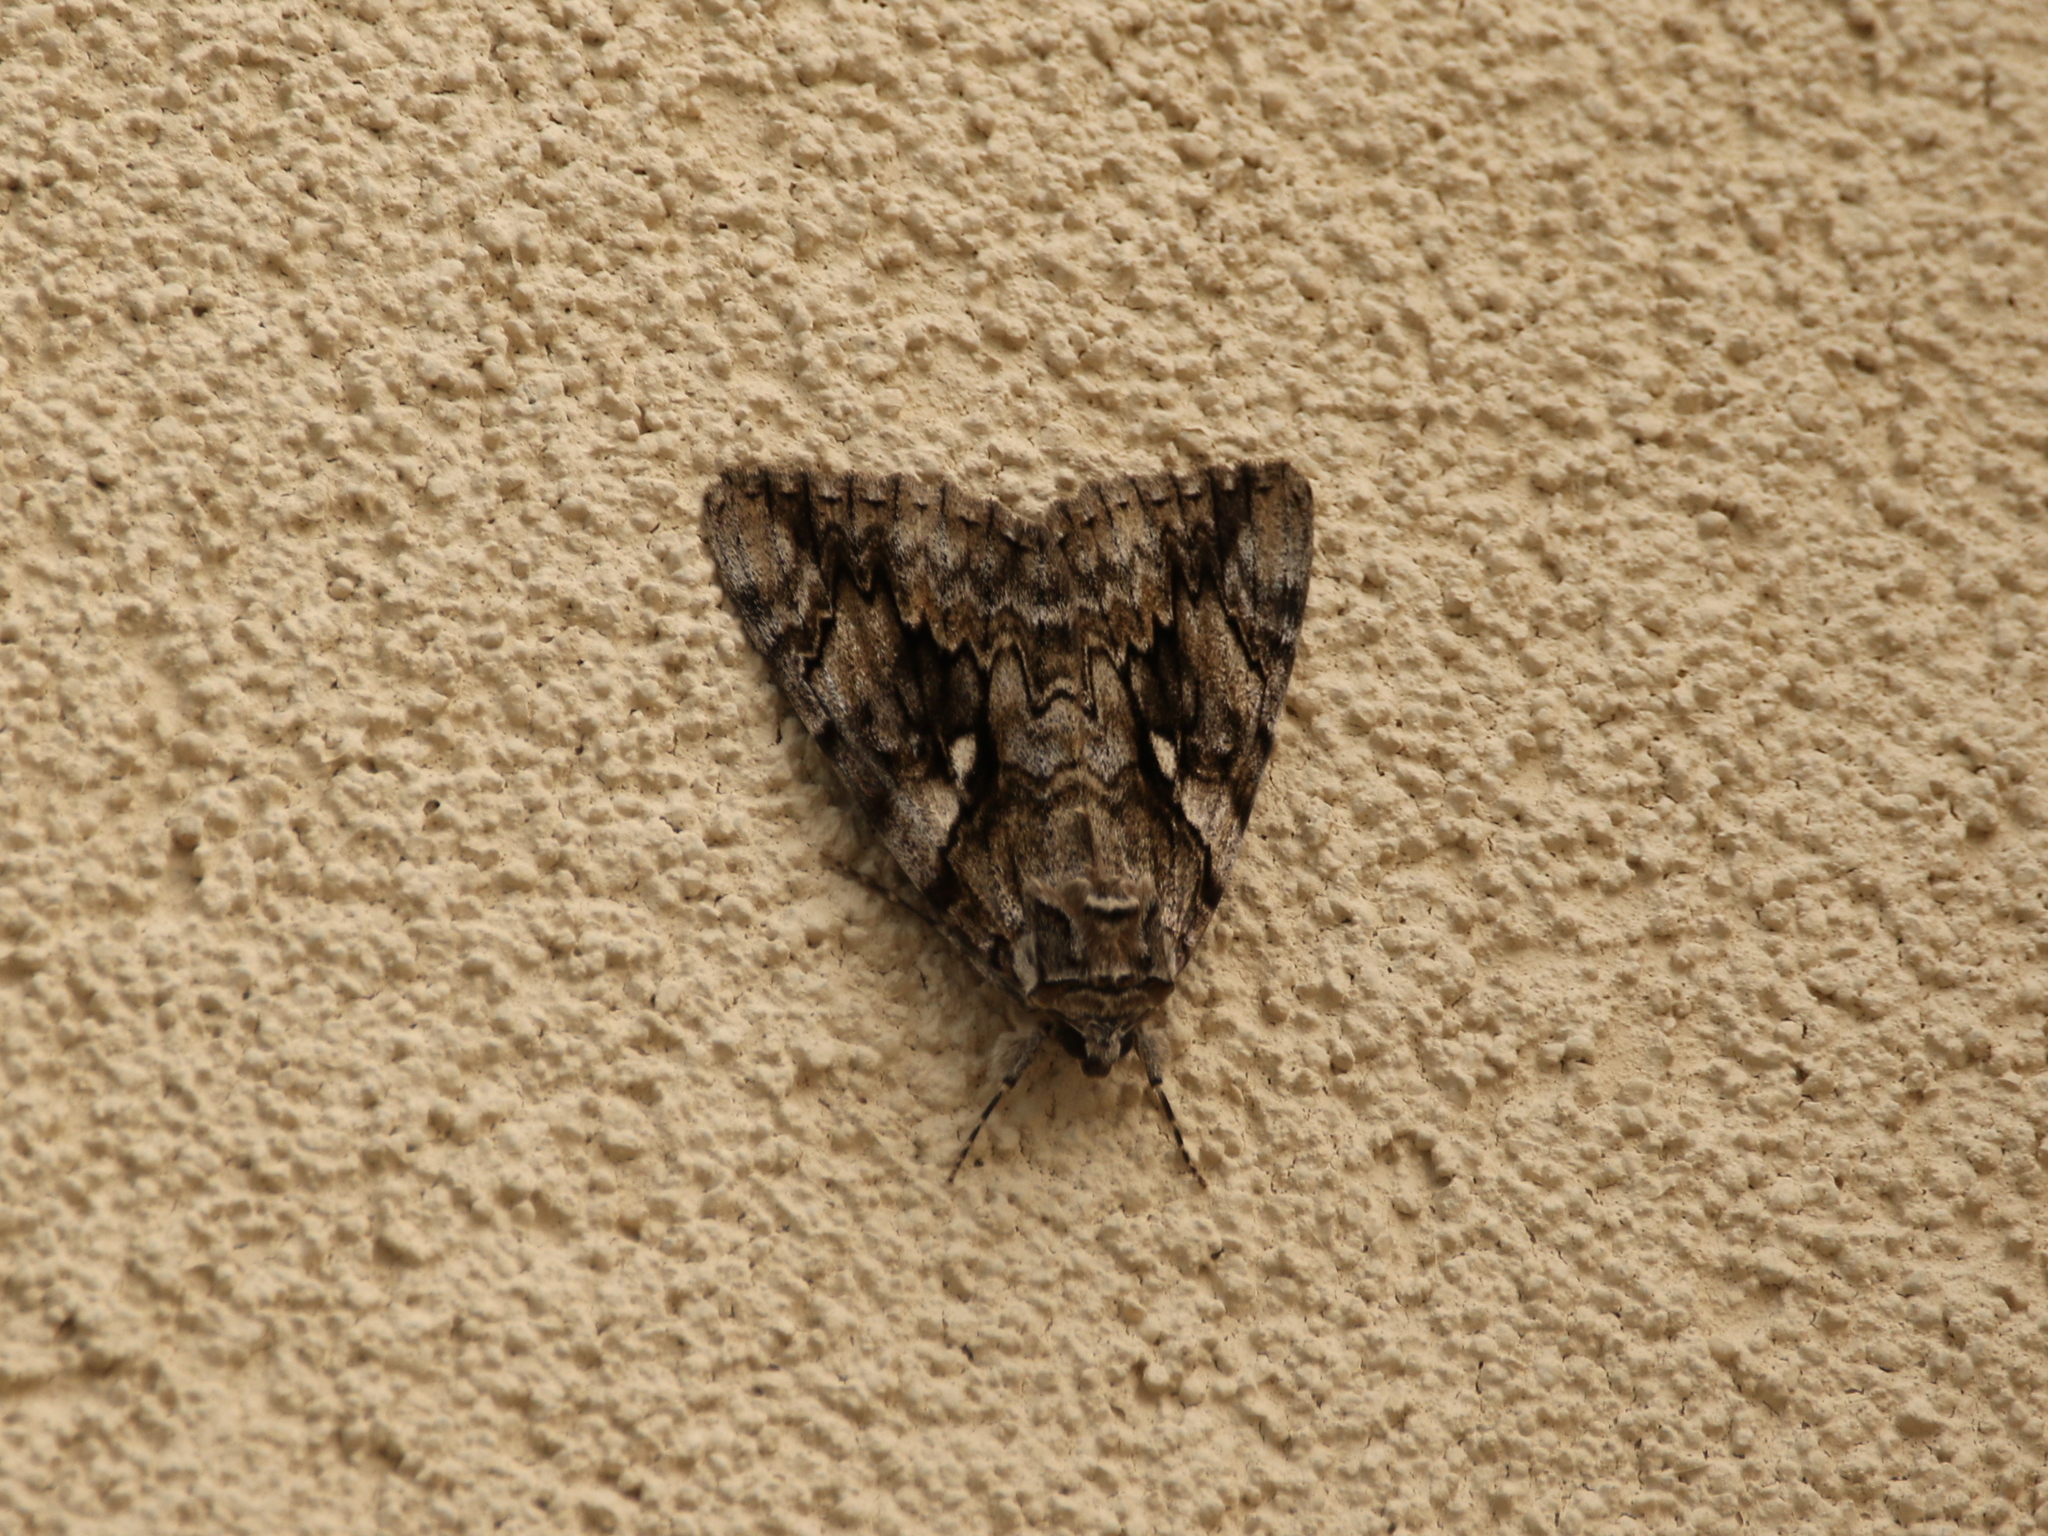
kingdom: Animalia
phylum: Arthropoda
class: Insecta
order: Lepidoptera
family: Erebidae
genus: Catocala
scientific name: Catocala cerogama
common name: Yellow banded underwing
